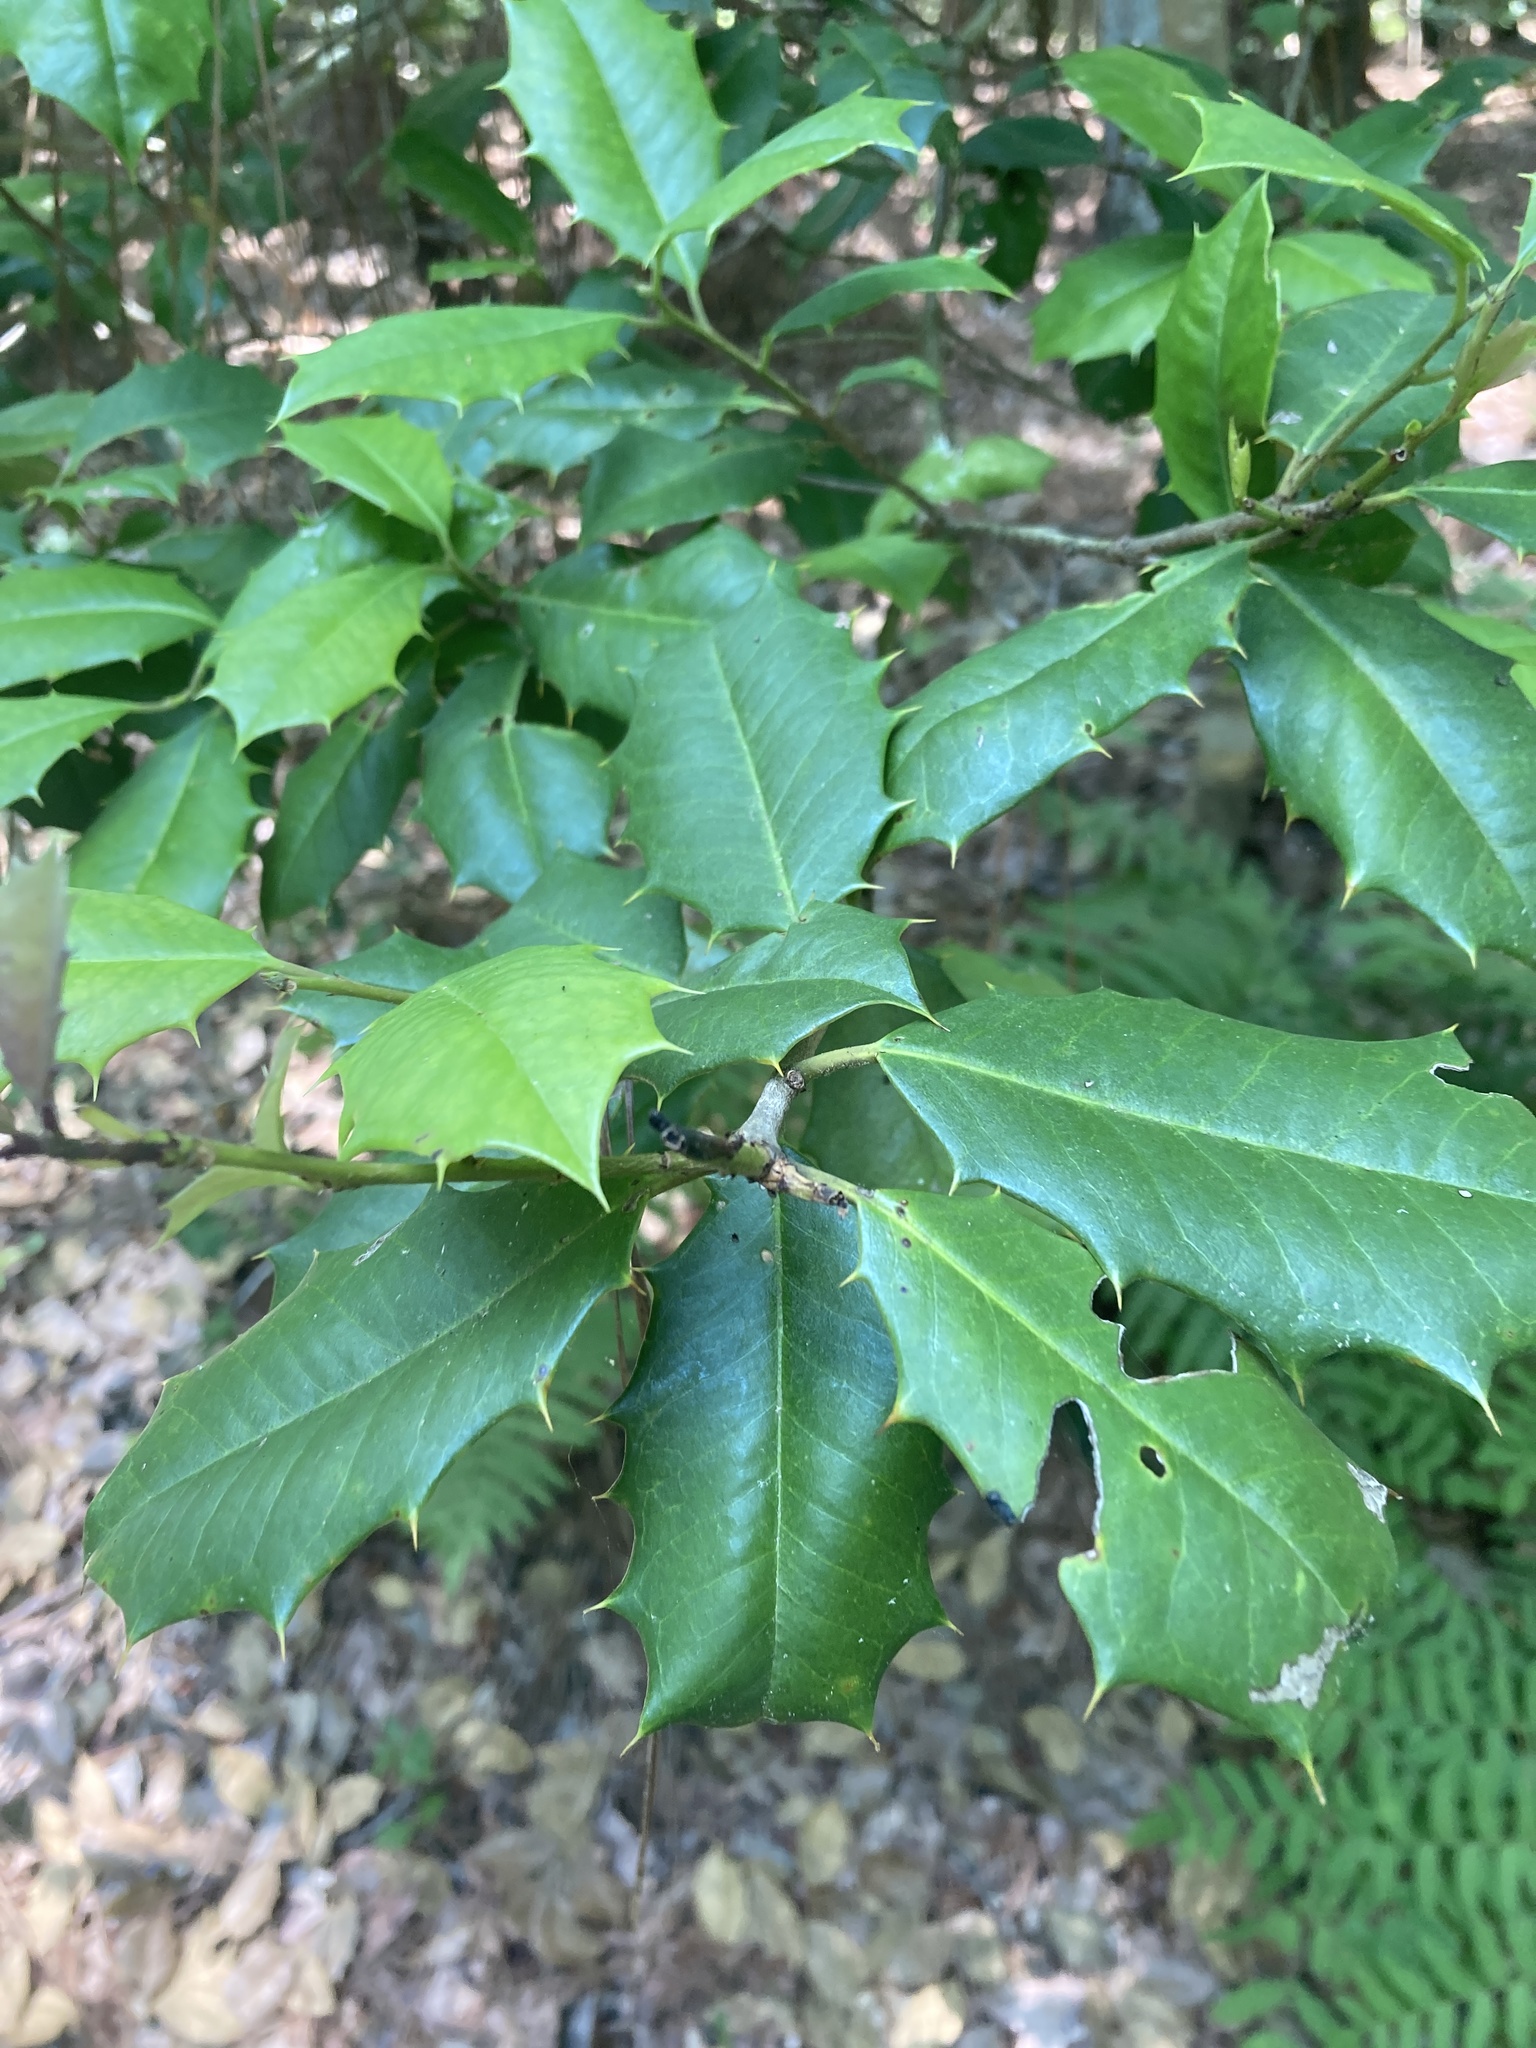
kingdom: Plantae
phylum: Tracheophyta
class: Magnoliopsida
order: Aquifoliales
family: Aquifoliaceae
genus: Ilex
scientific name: Ilex opaca
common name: American holly
